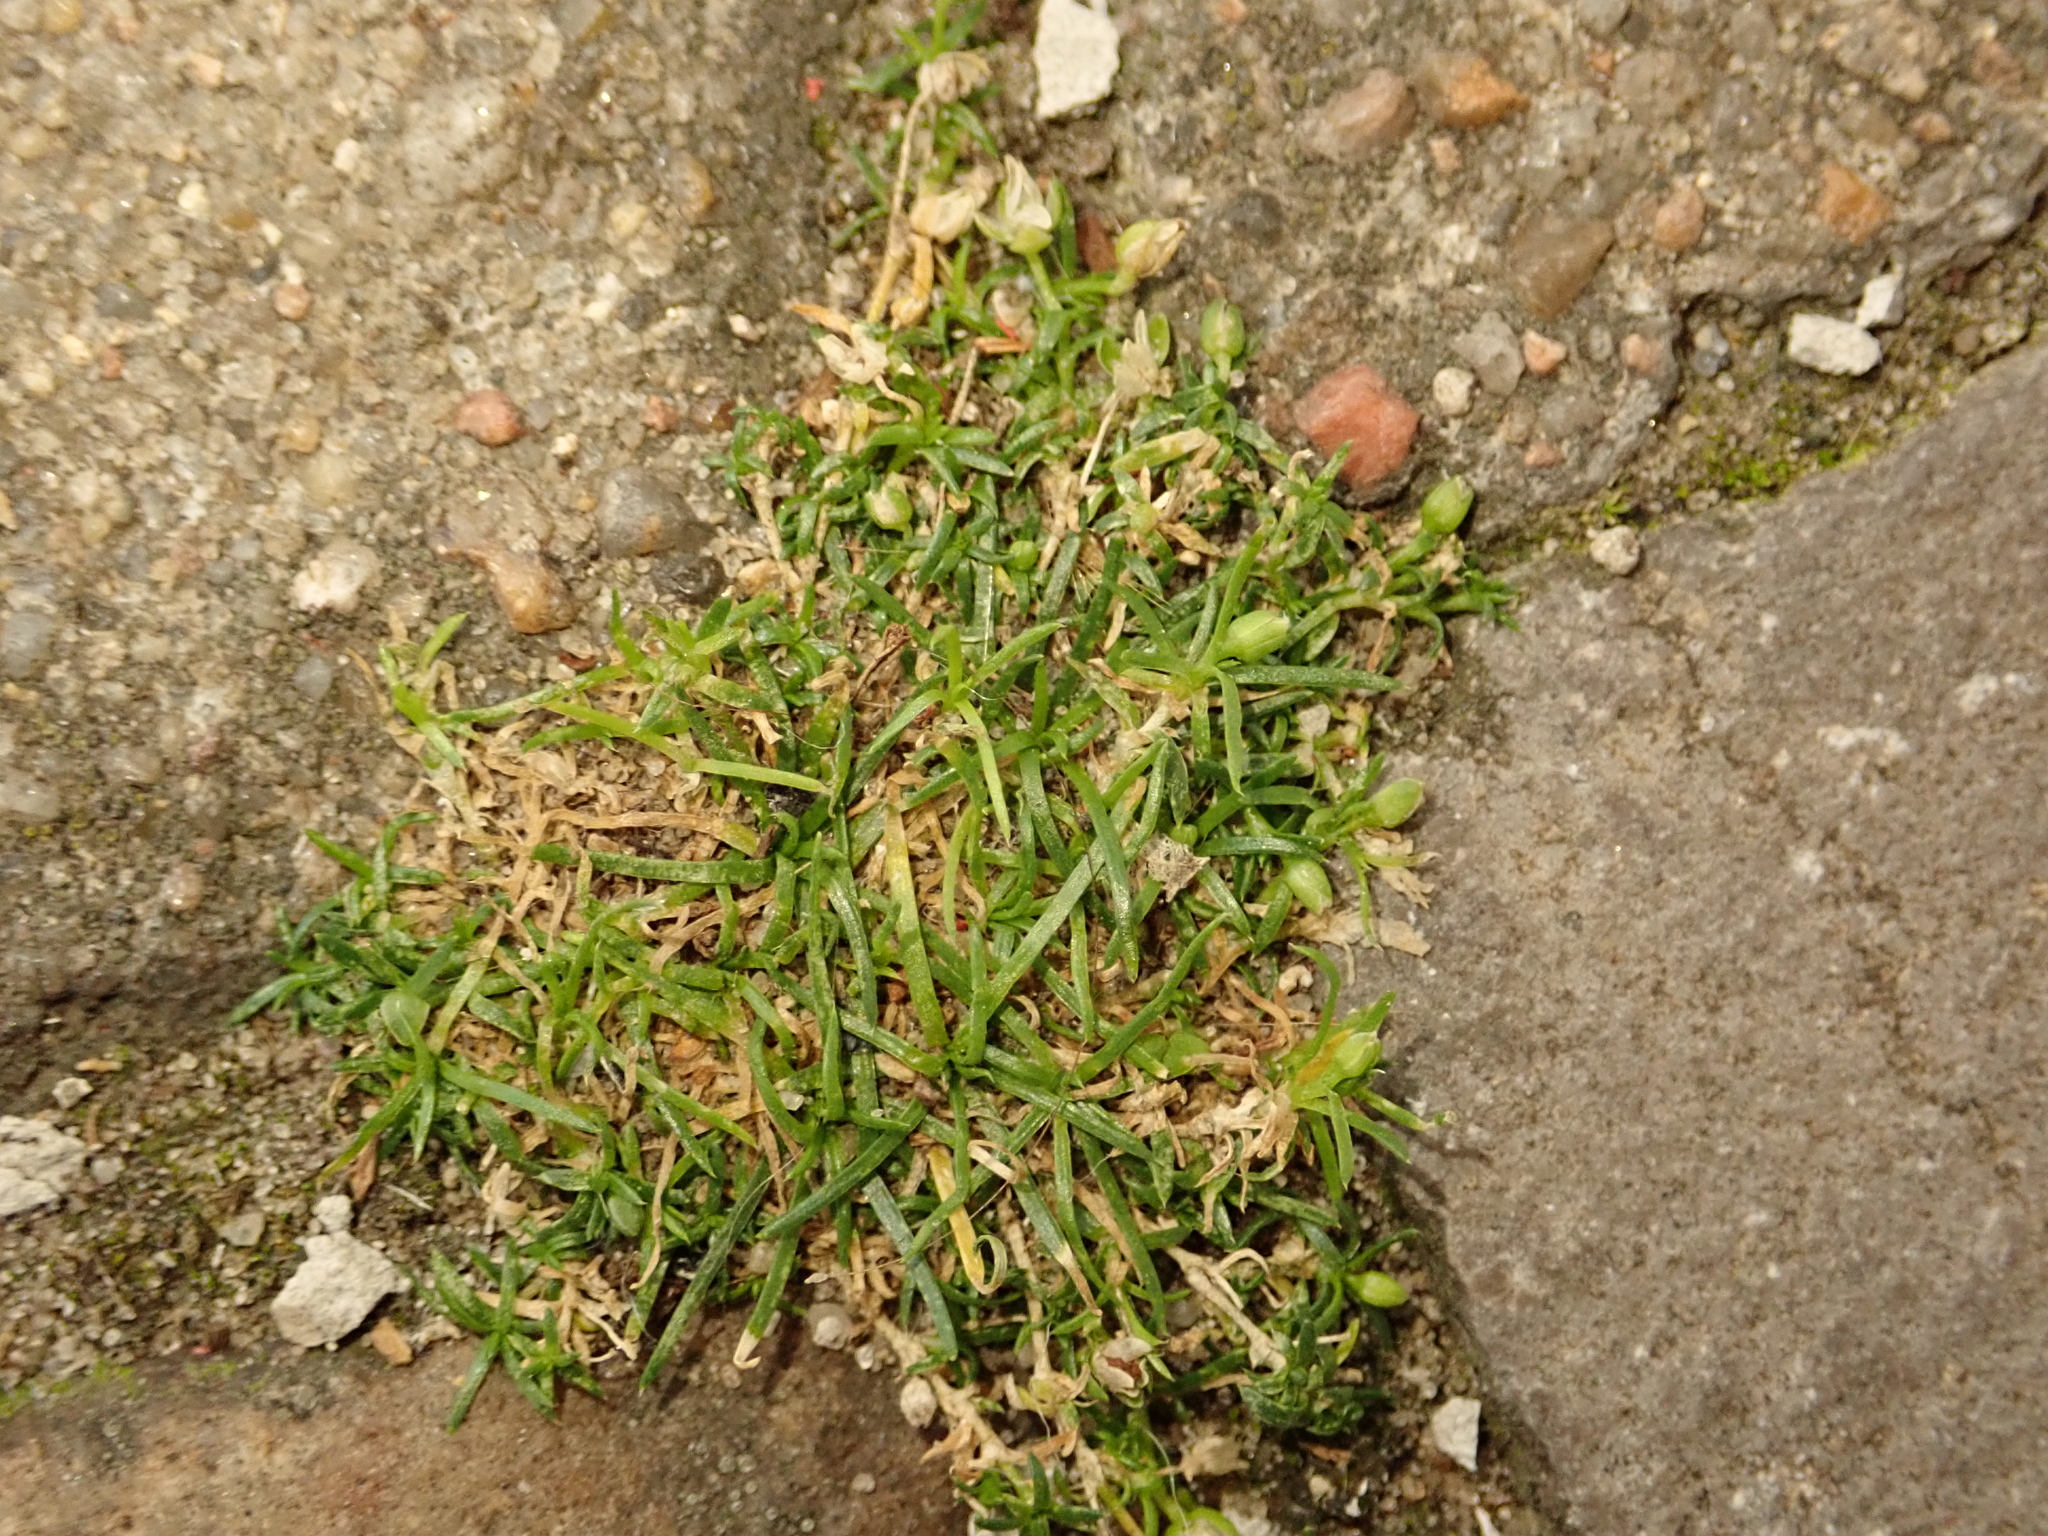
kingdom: Plantae
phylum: Tracheophyta
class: Magnoliopsida
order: Caryophyllales
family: Caryophyllaceae
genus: Sagina
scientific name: Sagina procumbens
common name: Procumbent pearlwort
